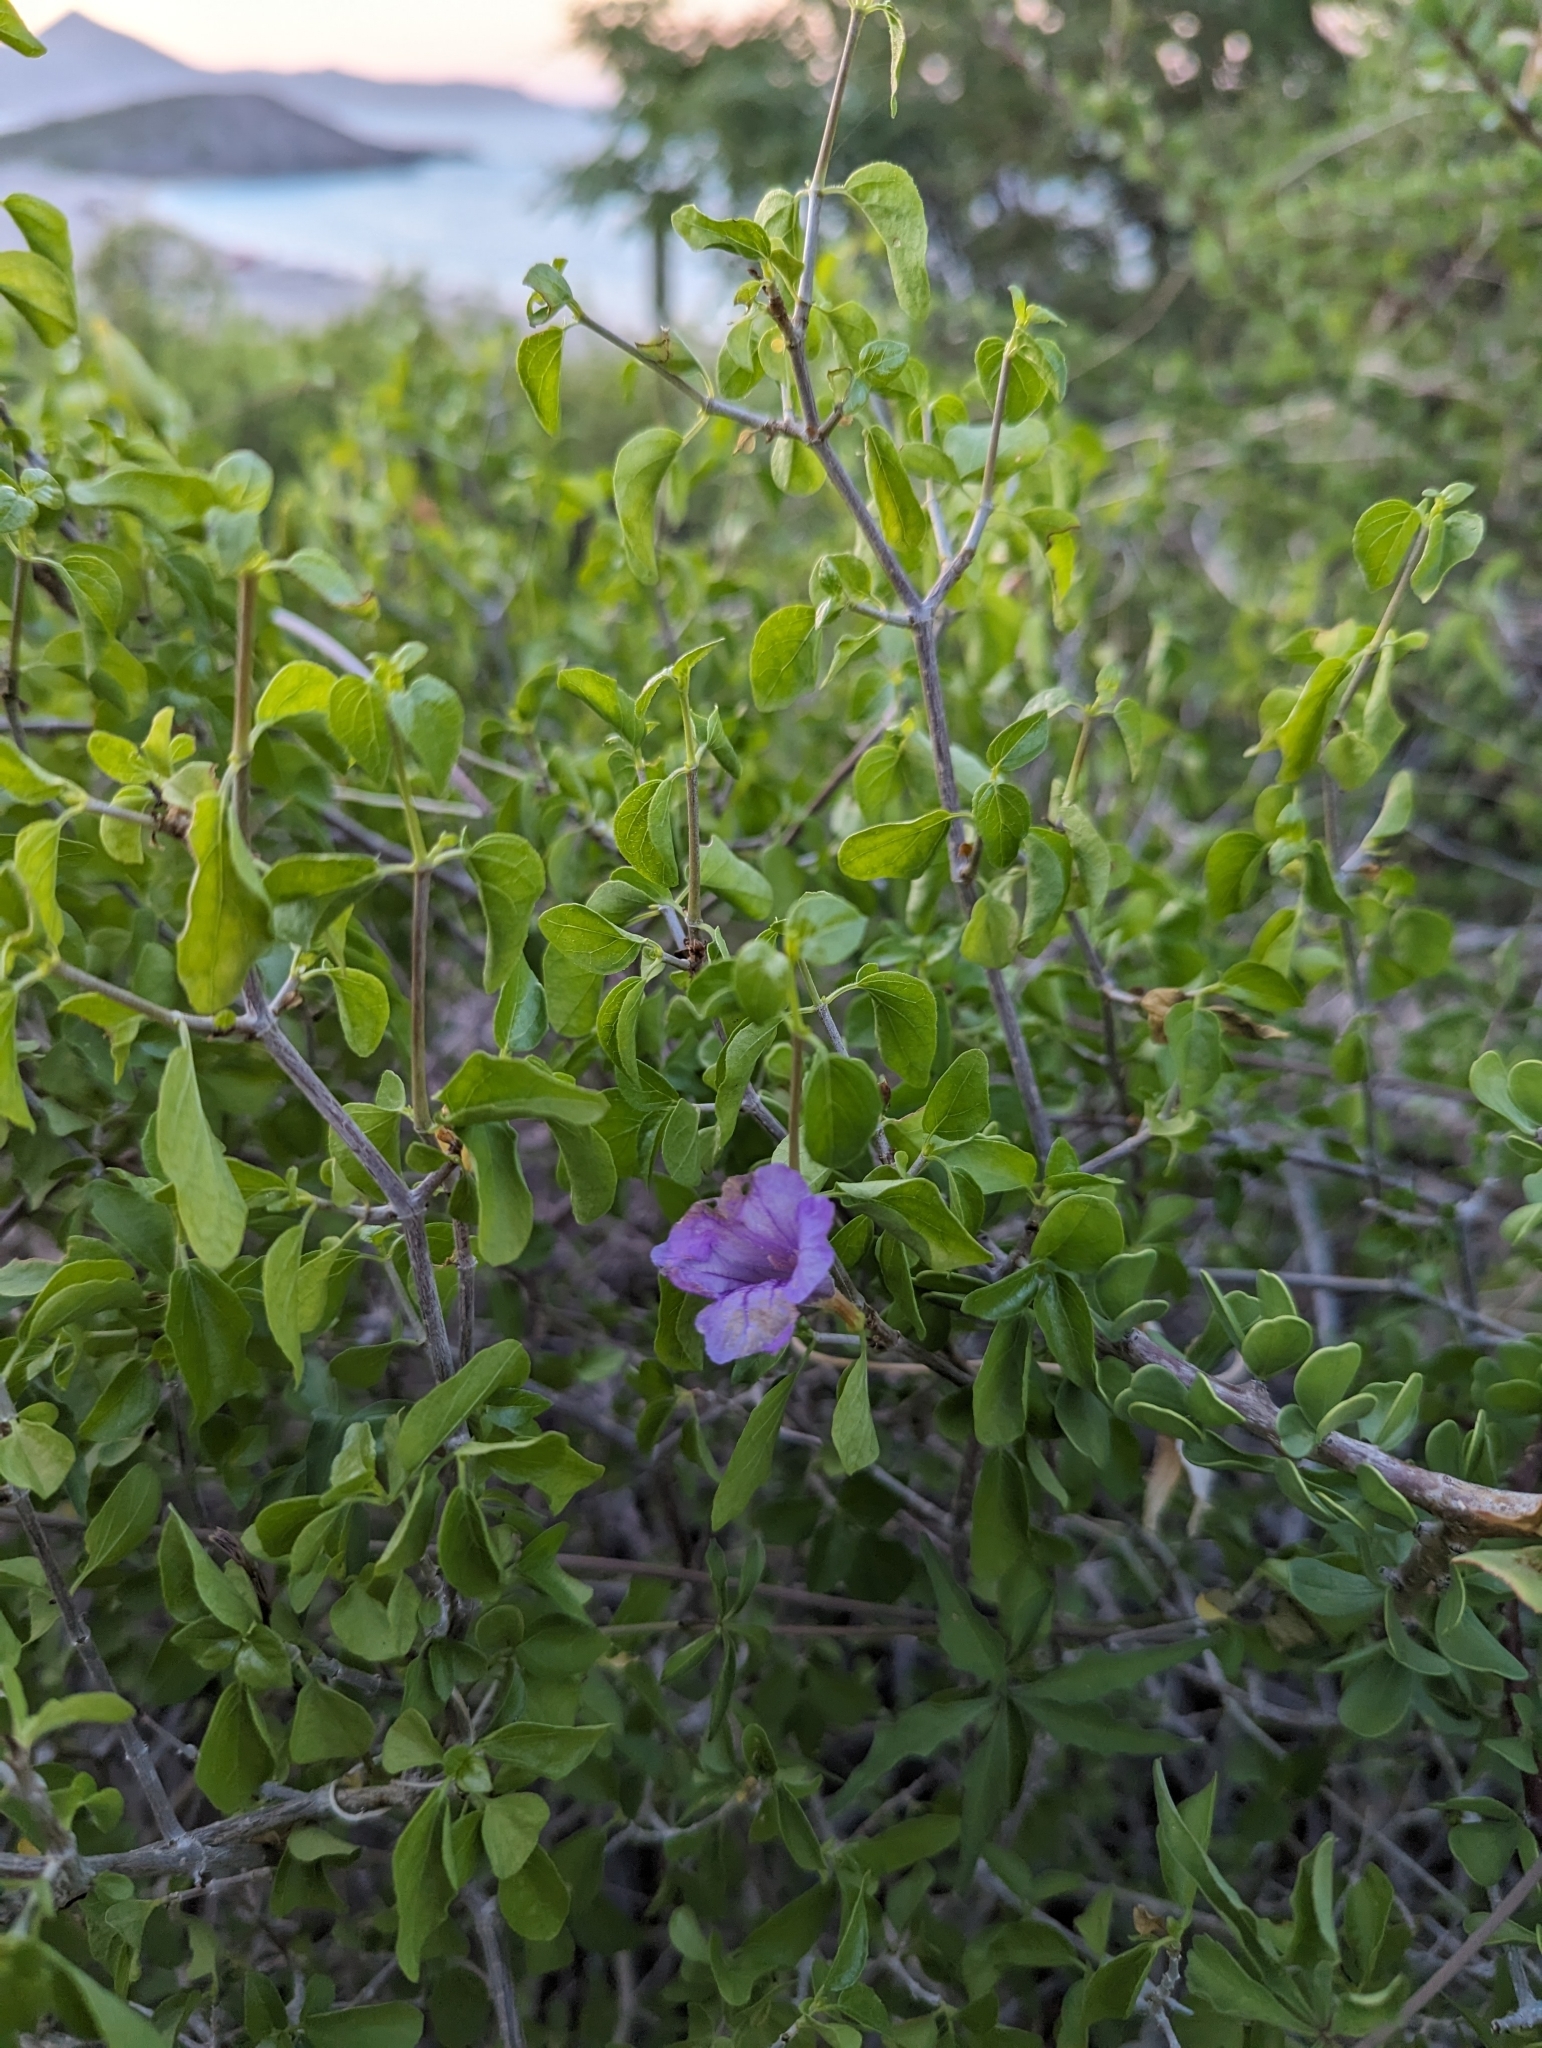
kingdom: Plantae
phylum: Tracheophyta
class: Magnoliopsida
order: Lamiales
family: Acanthaceae
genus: Ruellia
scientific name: Ruellia californica
